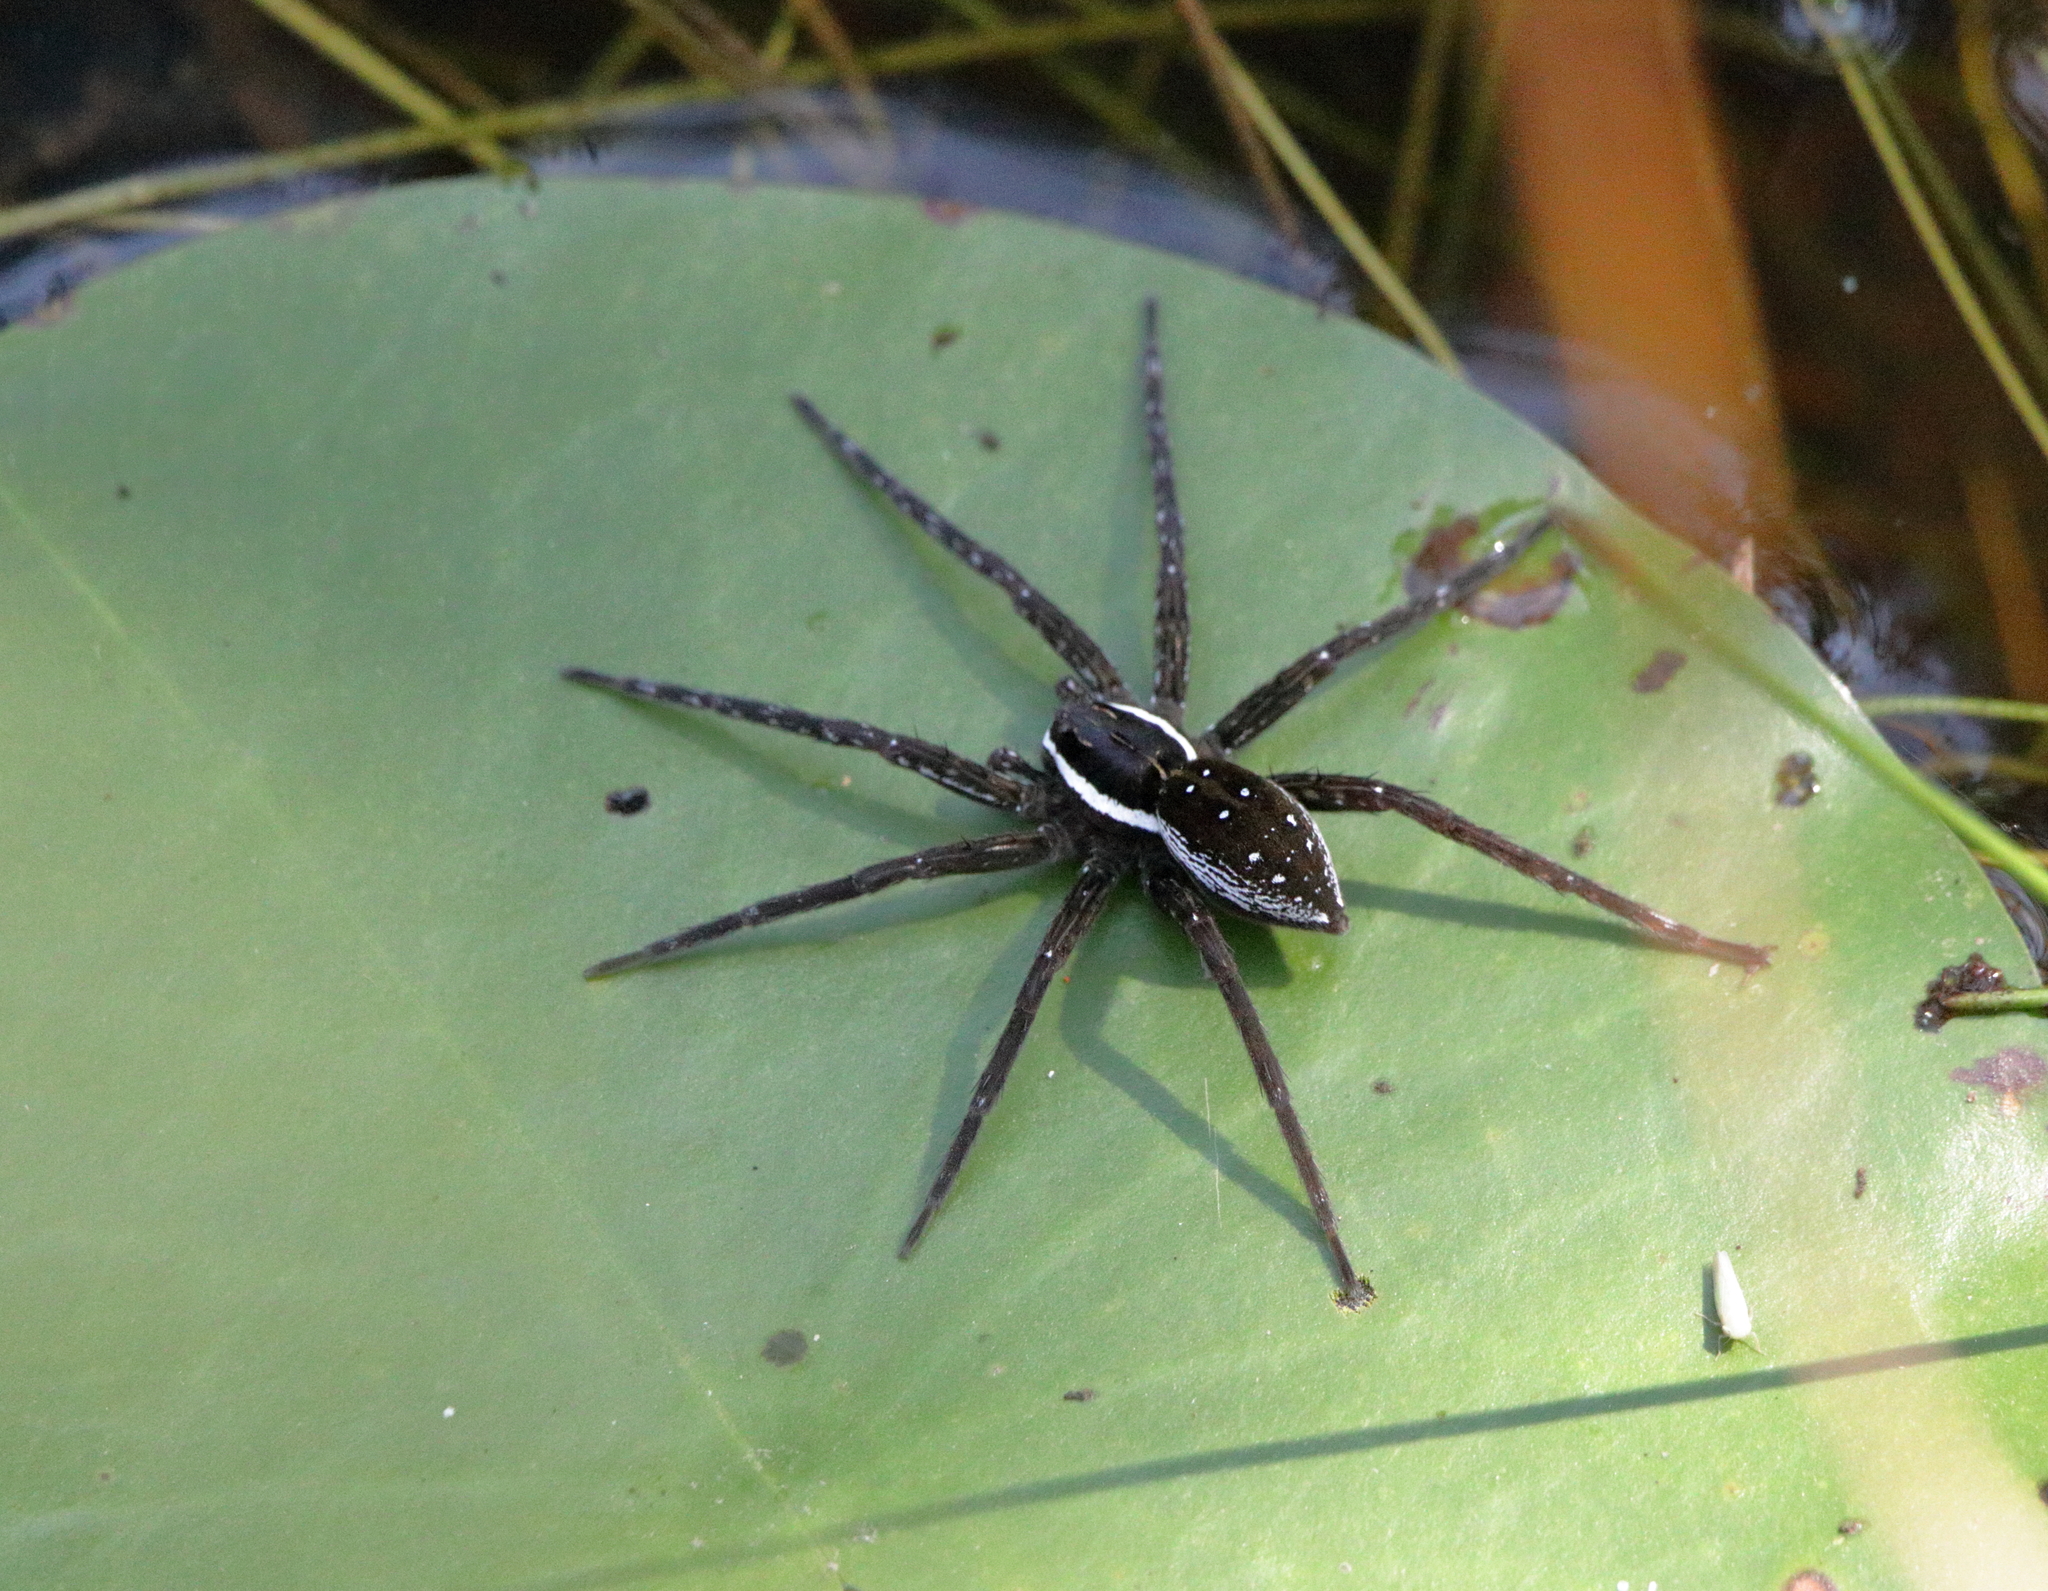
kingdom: Animalia
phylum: Arthropoda
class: Arachnida
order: Araneae
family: Pisauridae
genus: Dolomedes
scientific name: Dolomedes triton
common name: Six-spotted fishing spider
